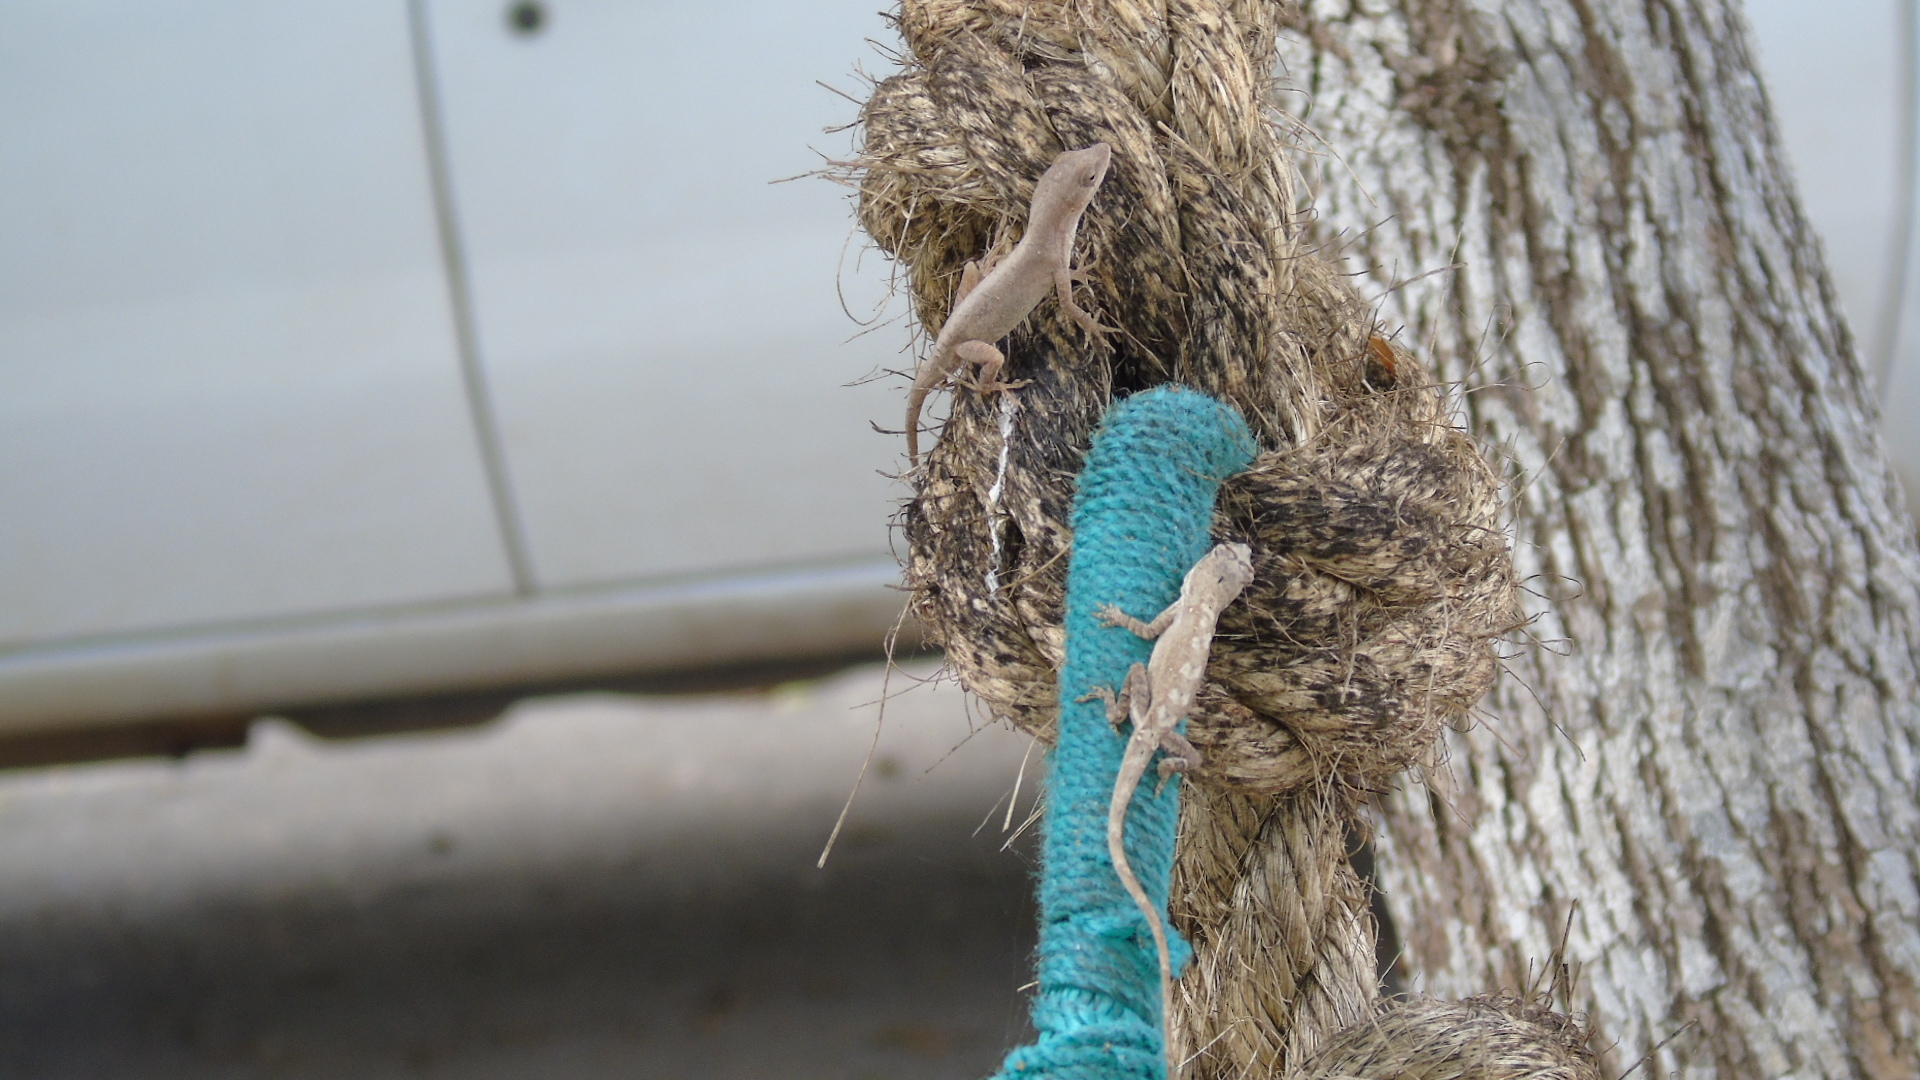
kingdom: Animalia
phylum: Chordata
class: Squamata
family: Dactyloidae
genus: Anolis
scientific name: Anolis nebulosus
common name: Clouded anole
